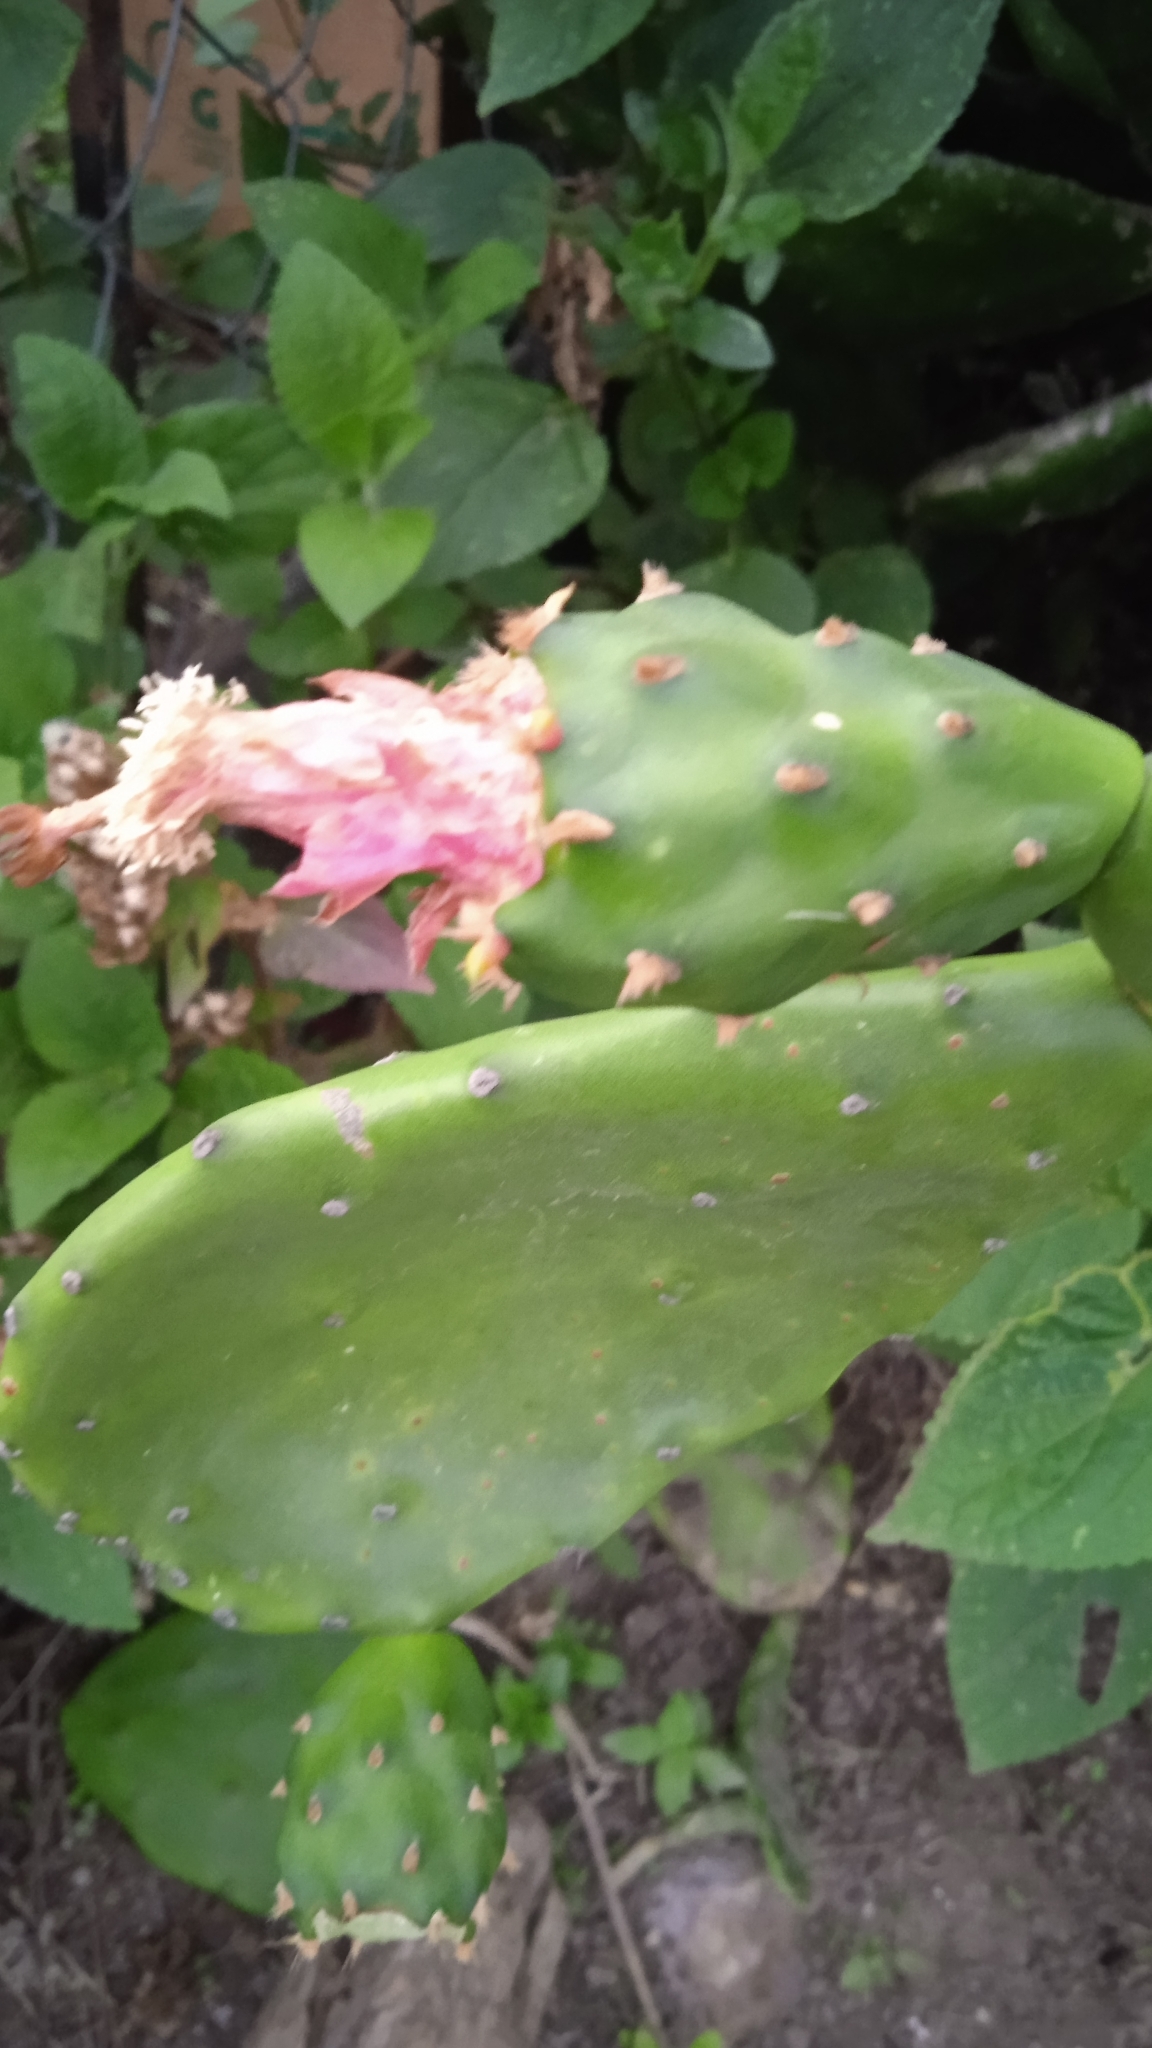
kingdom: Plantae
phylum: Tracheophyta
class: Magnoliopsida
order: Caryophyllales
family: Cactaceae
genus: Opuntia
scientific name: Opuntia cochenillifera
